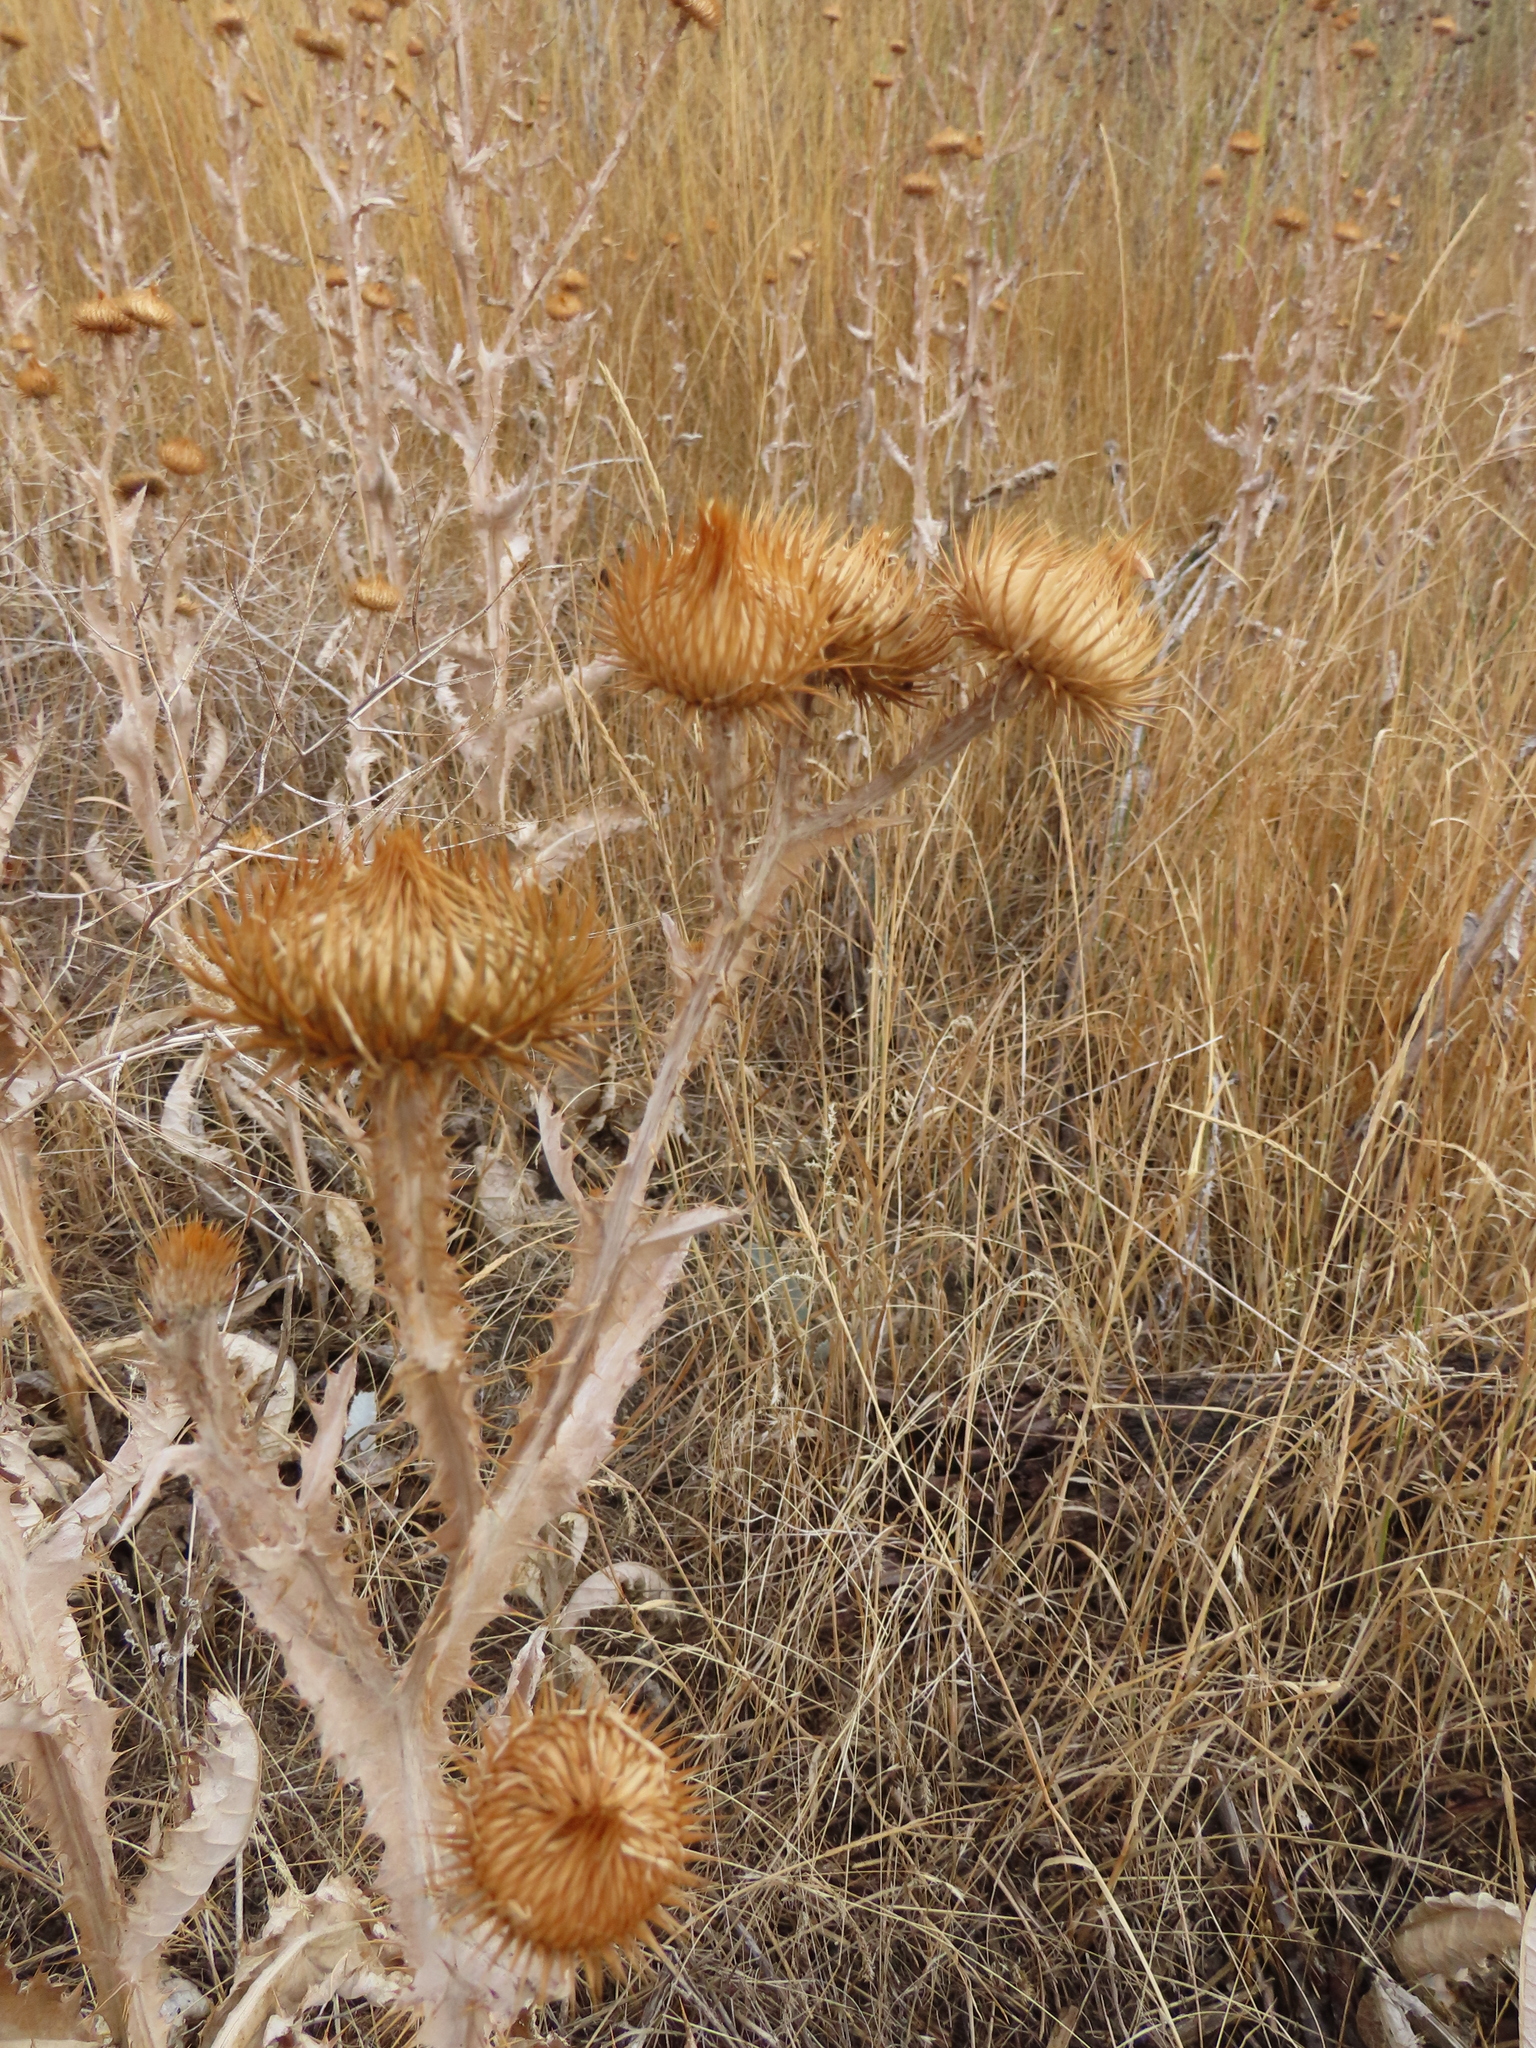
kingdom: Plantae
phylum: Tracheophyta
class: Magnoliopsida
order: Asterales
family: Asteraceae
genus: Onopordum
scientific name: Onopordum acanthium
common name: Scotch thistle
